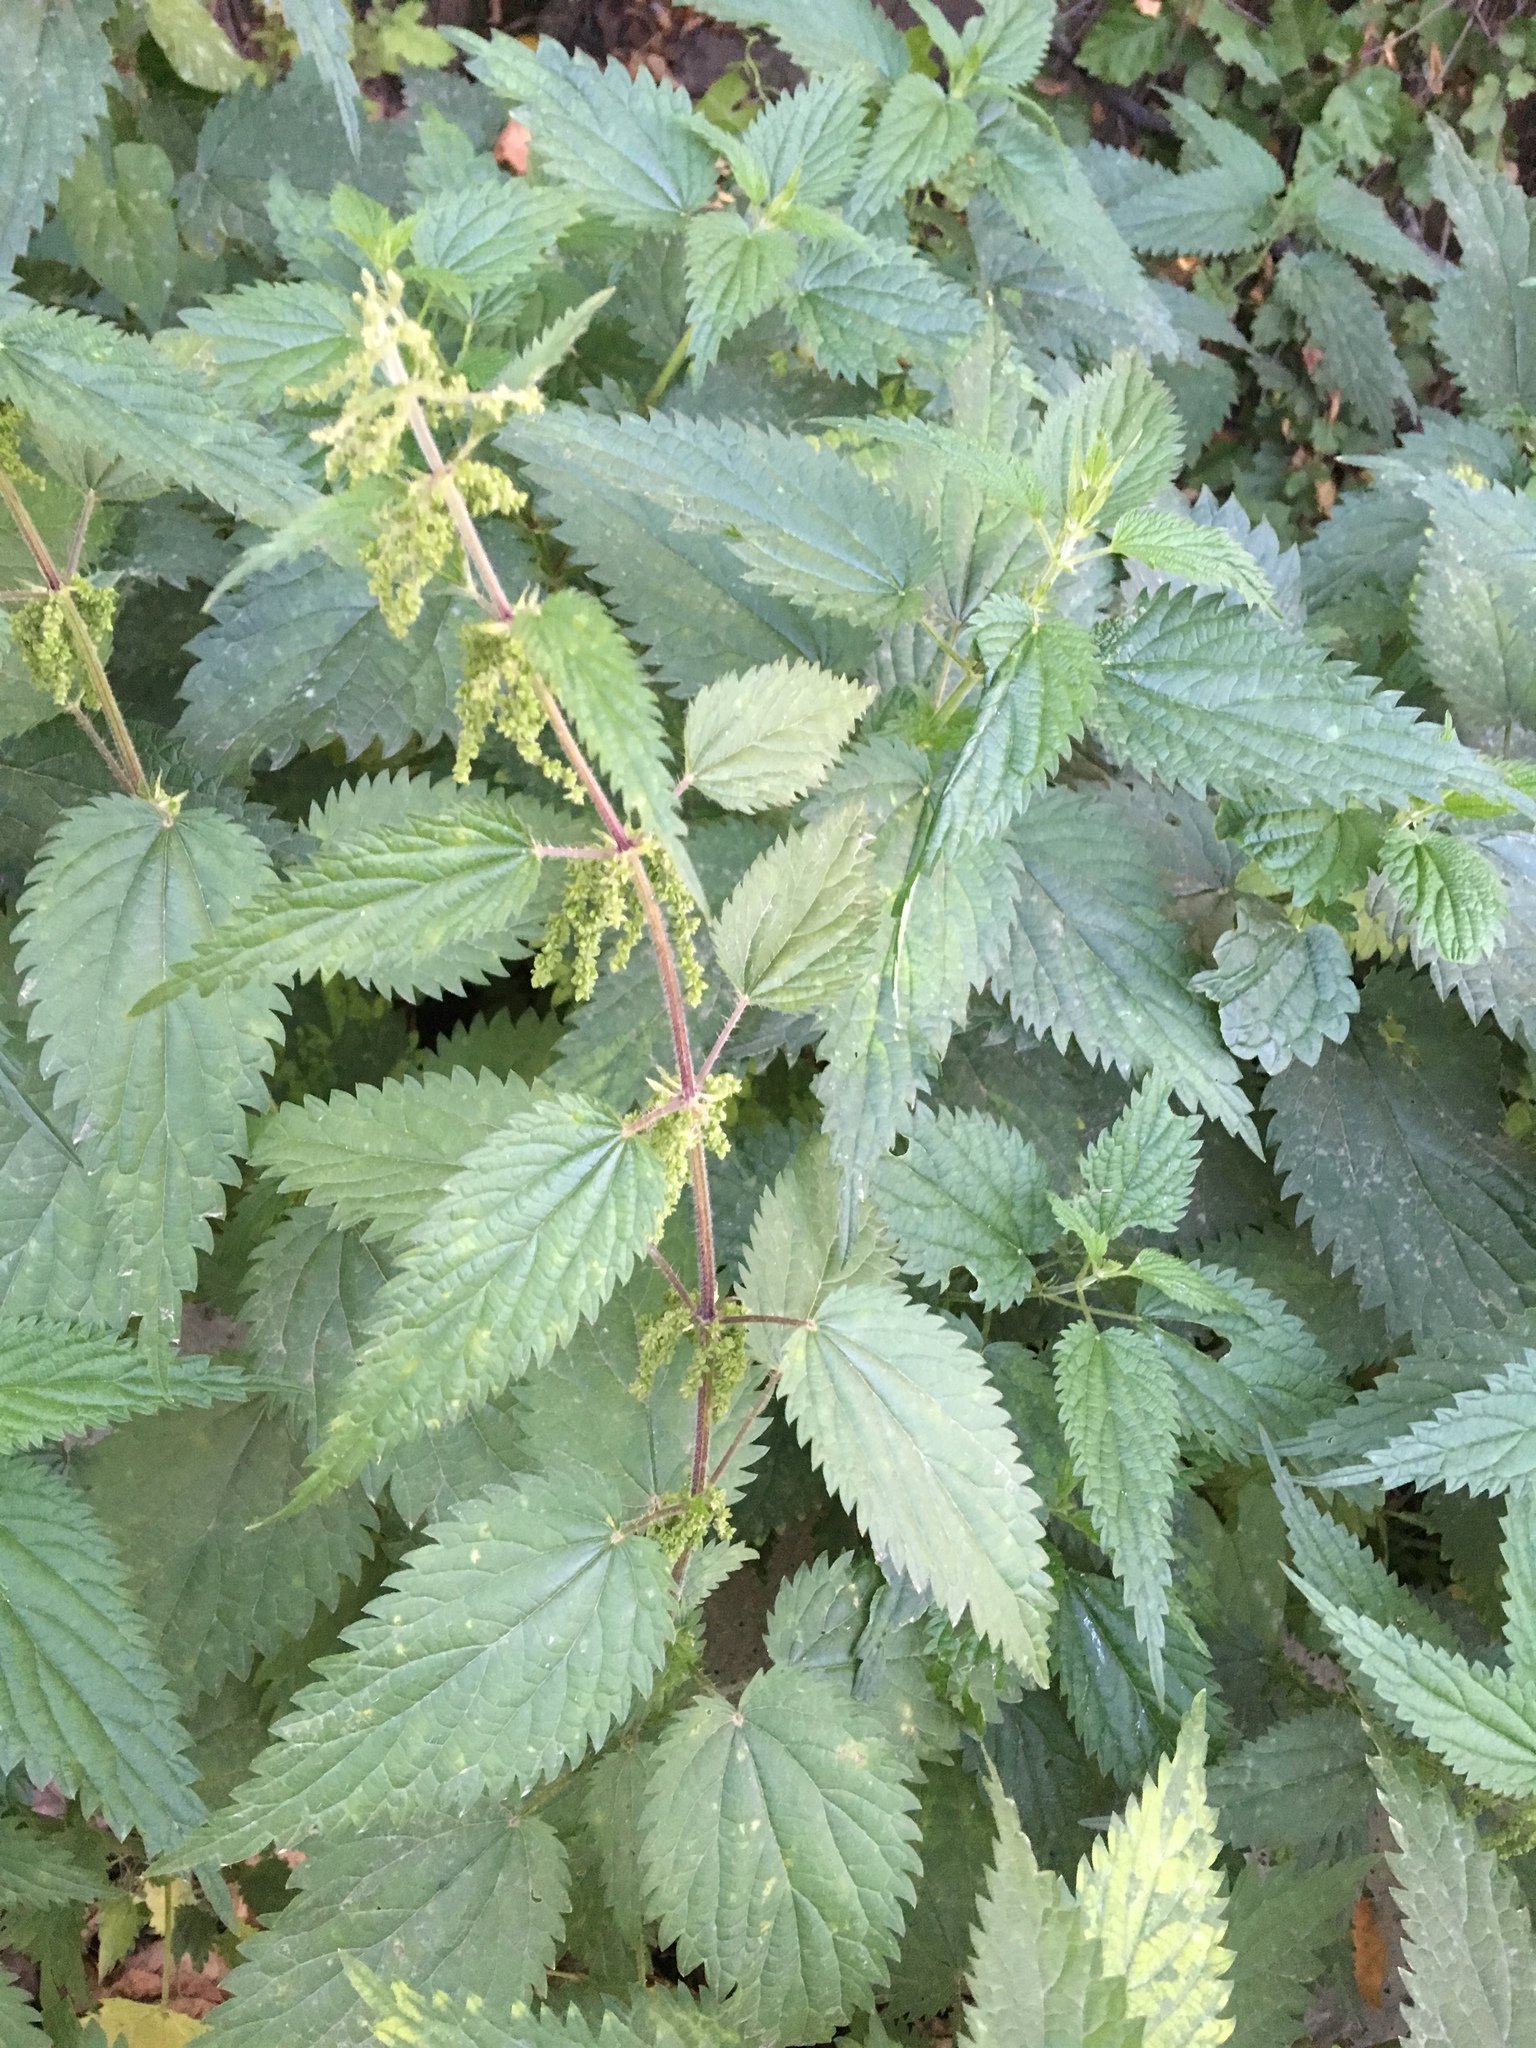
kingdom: Plantae
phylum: Tracheophyta
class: Magnoliopsida
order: Rosales
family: Urticaceae
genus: Urtica
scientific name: Urtica dioica
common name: Common nettle
